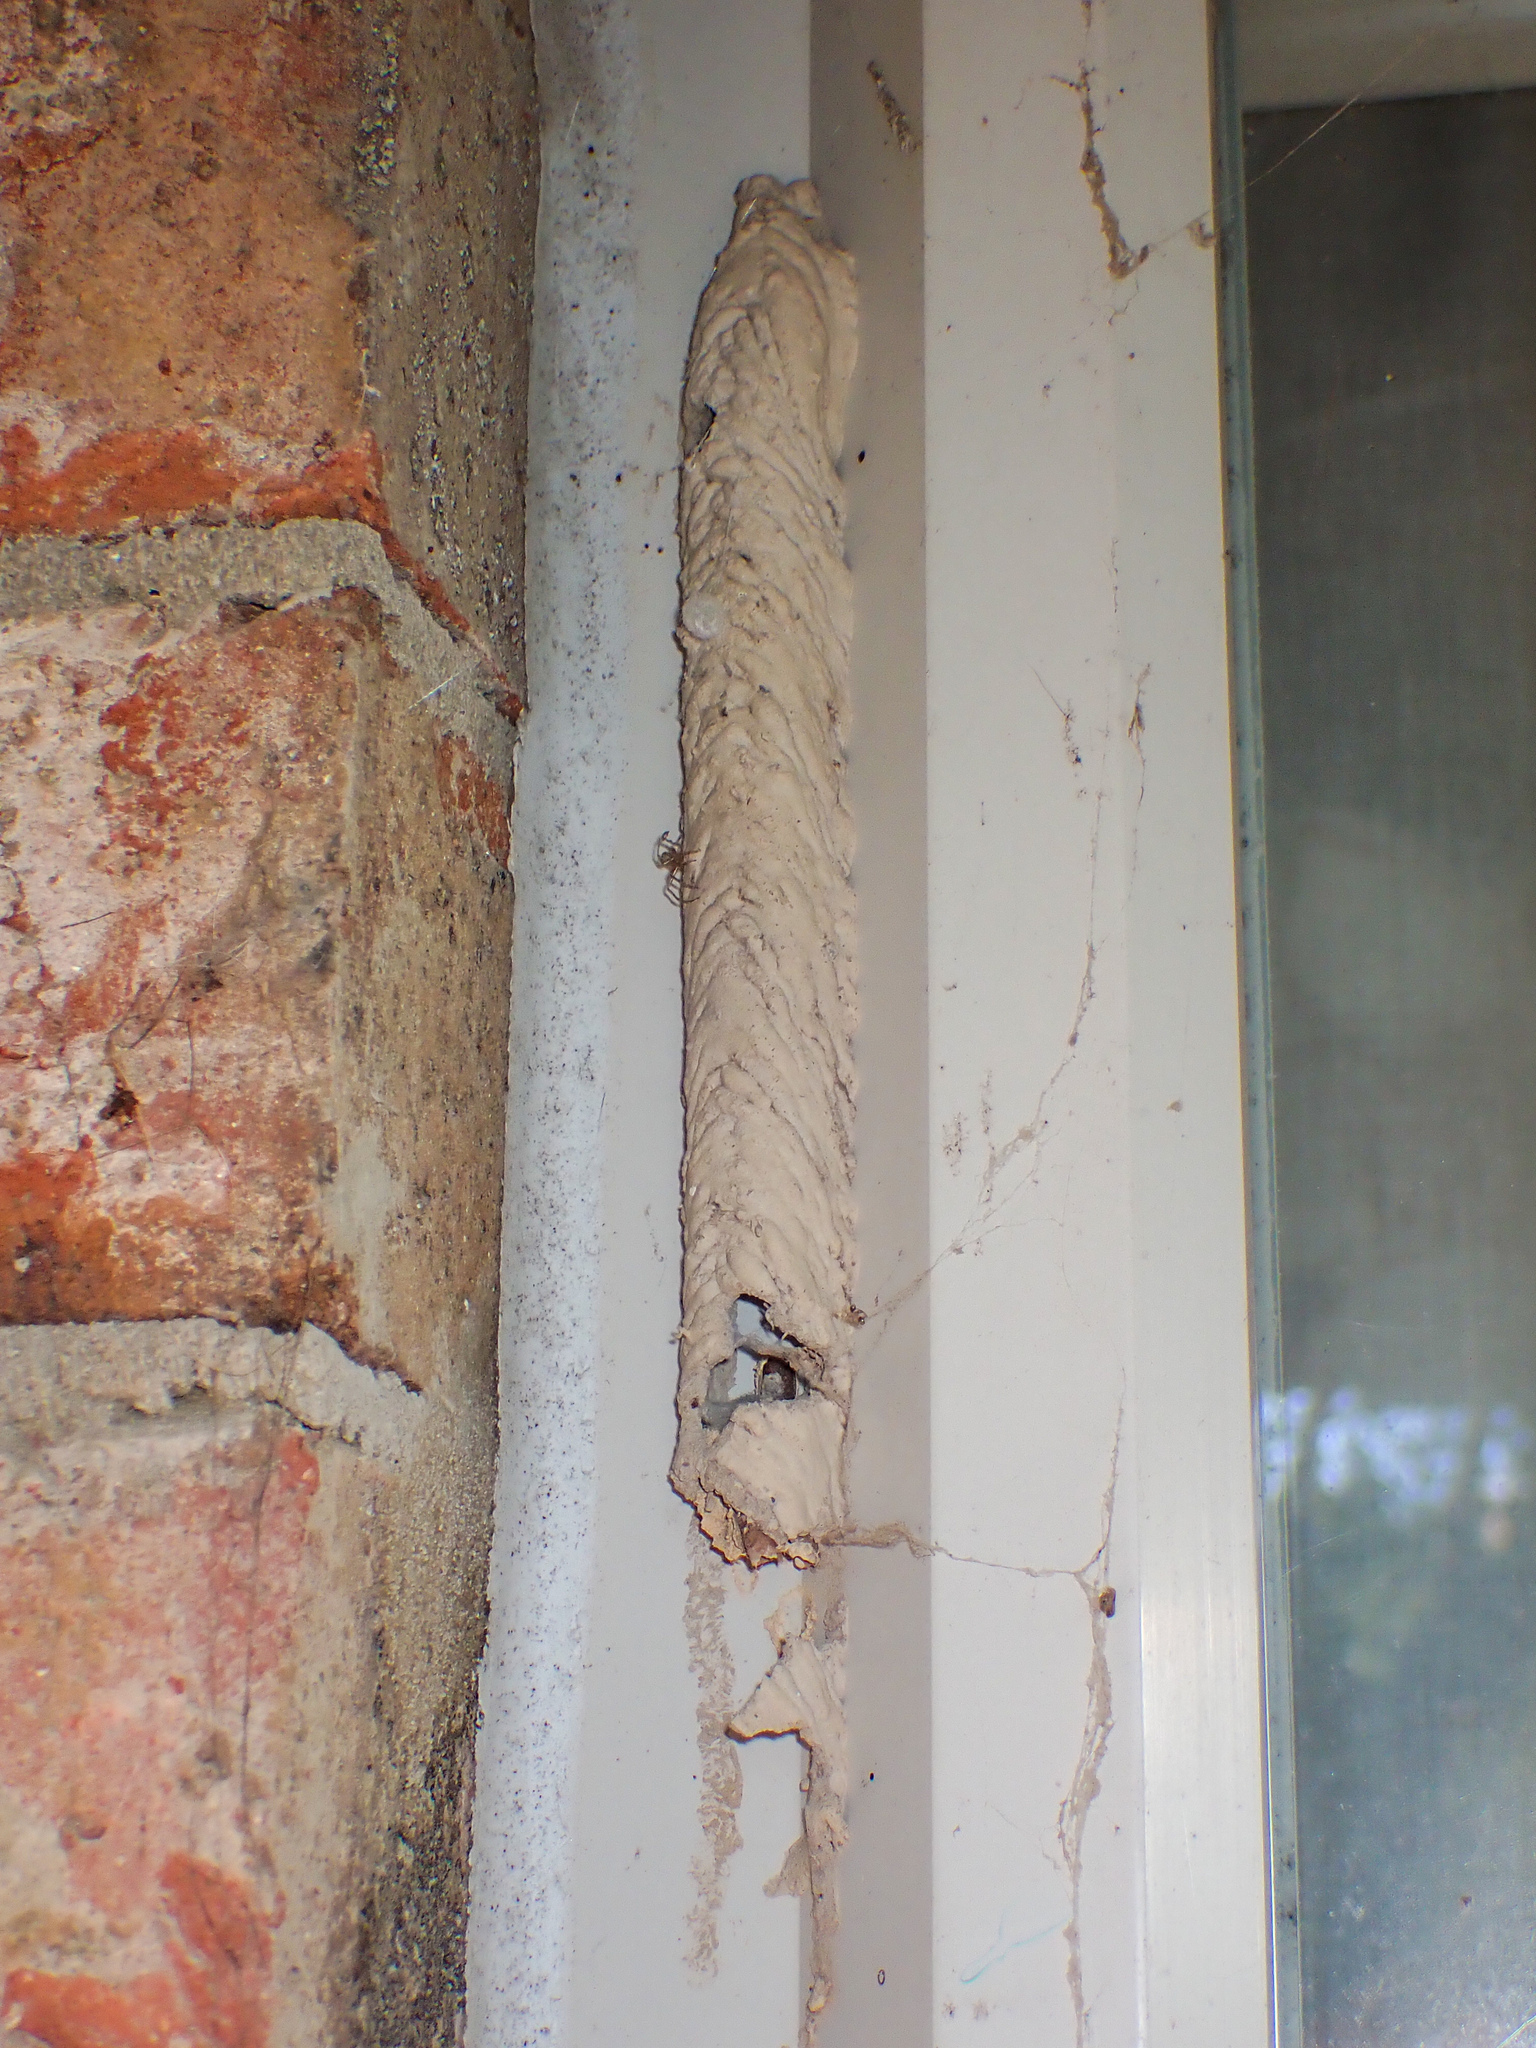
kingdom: Animalia
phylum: Arthropoda
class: Insecta
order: Hymenoptera
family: Crabronidae
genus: Trypoxylon
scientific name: Trypoxylon politum
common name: Organ-pipe mud-dauber wasp
